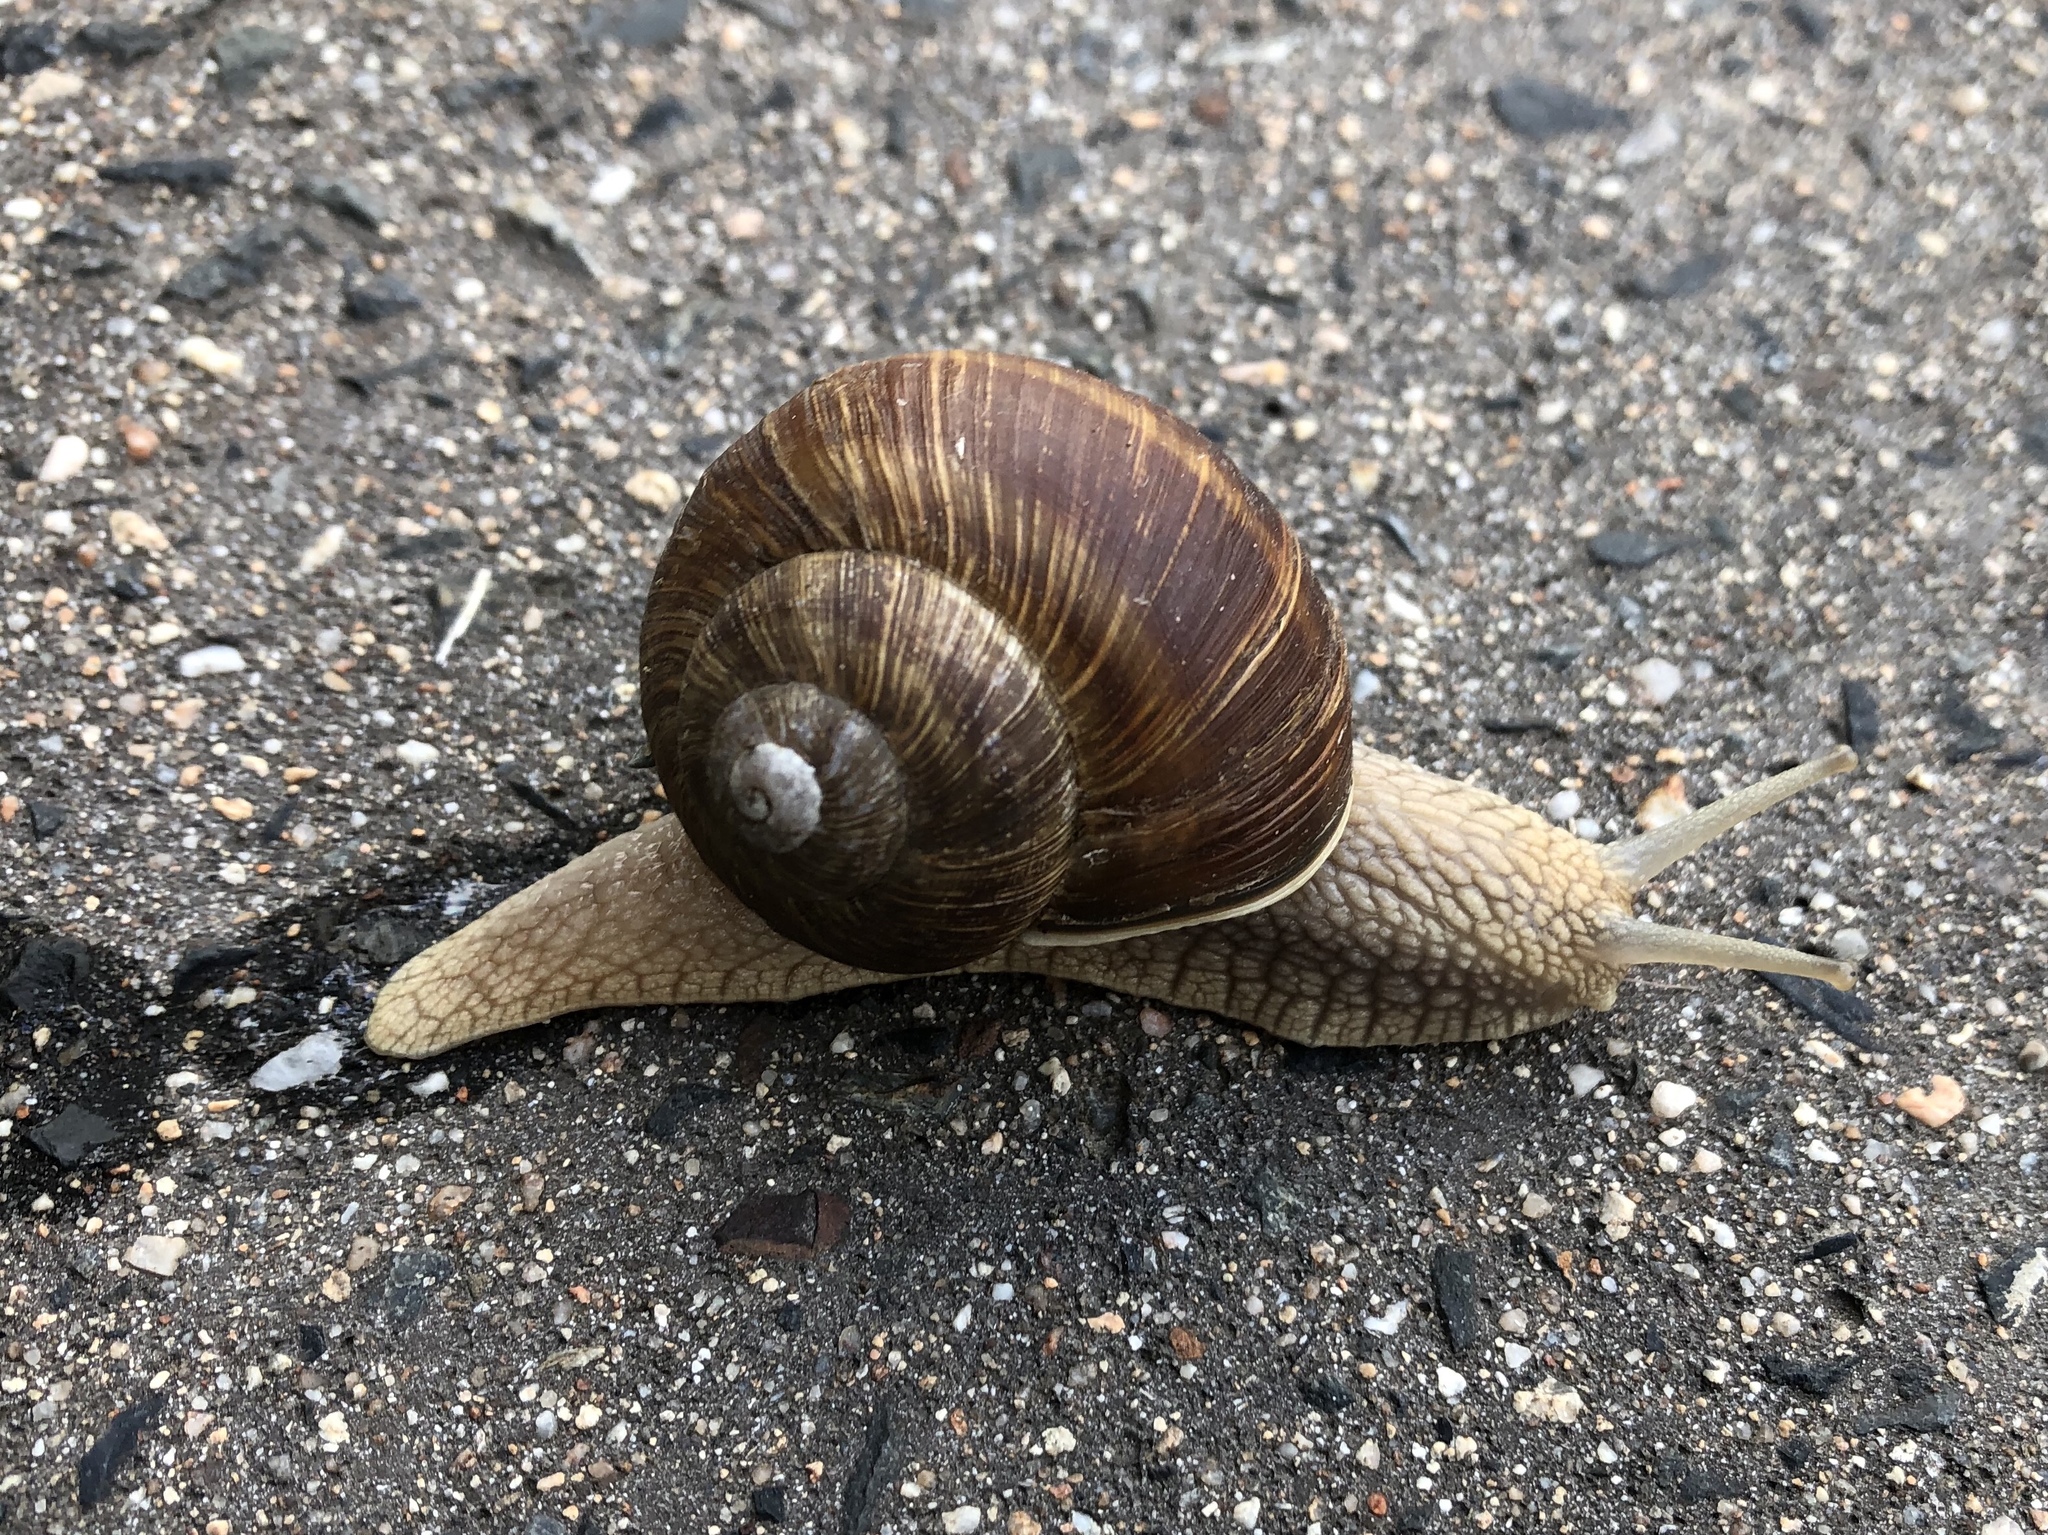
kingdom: Animalia
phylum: Mollusca
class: Gastropoda
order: Stylommatophora
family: Helicidae
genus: Helix
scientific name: Helix pomatia
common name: Roman snail
